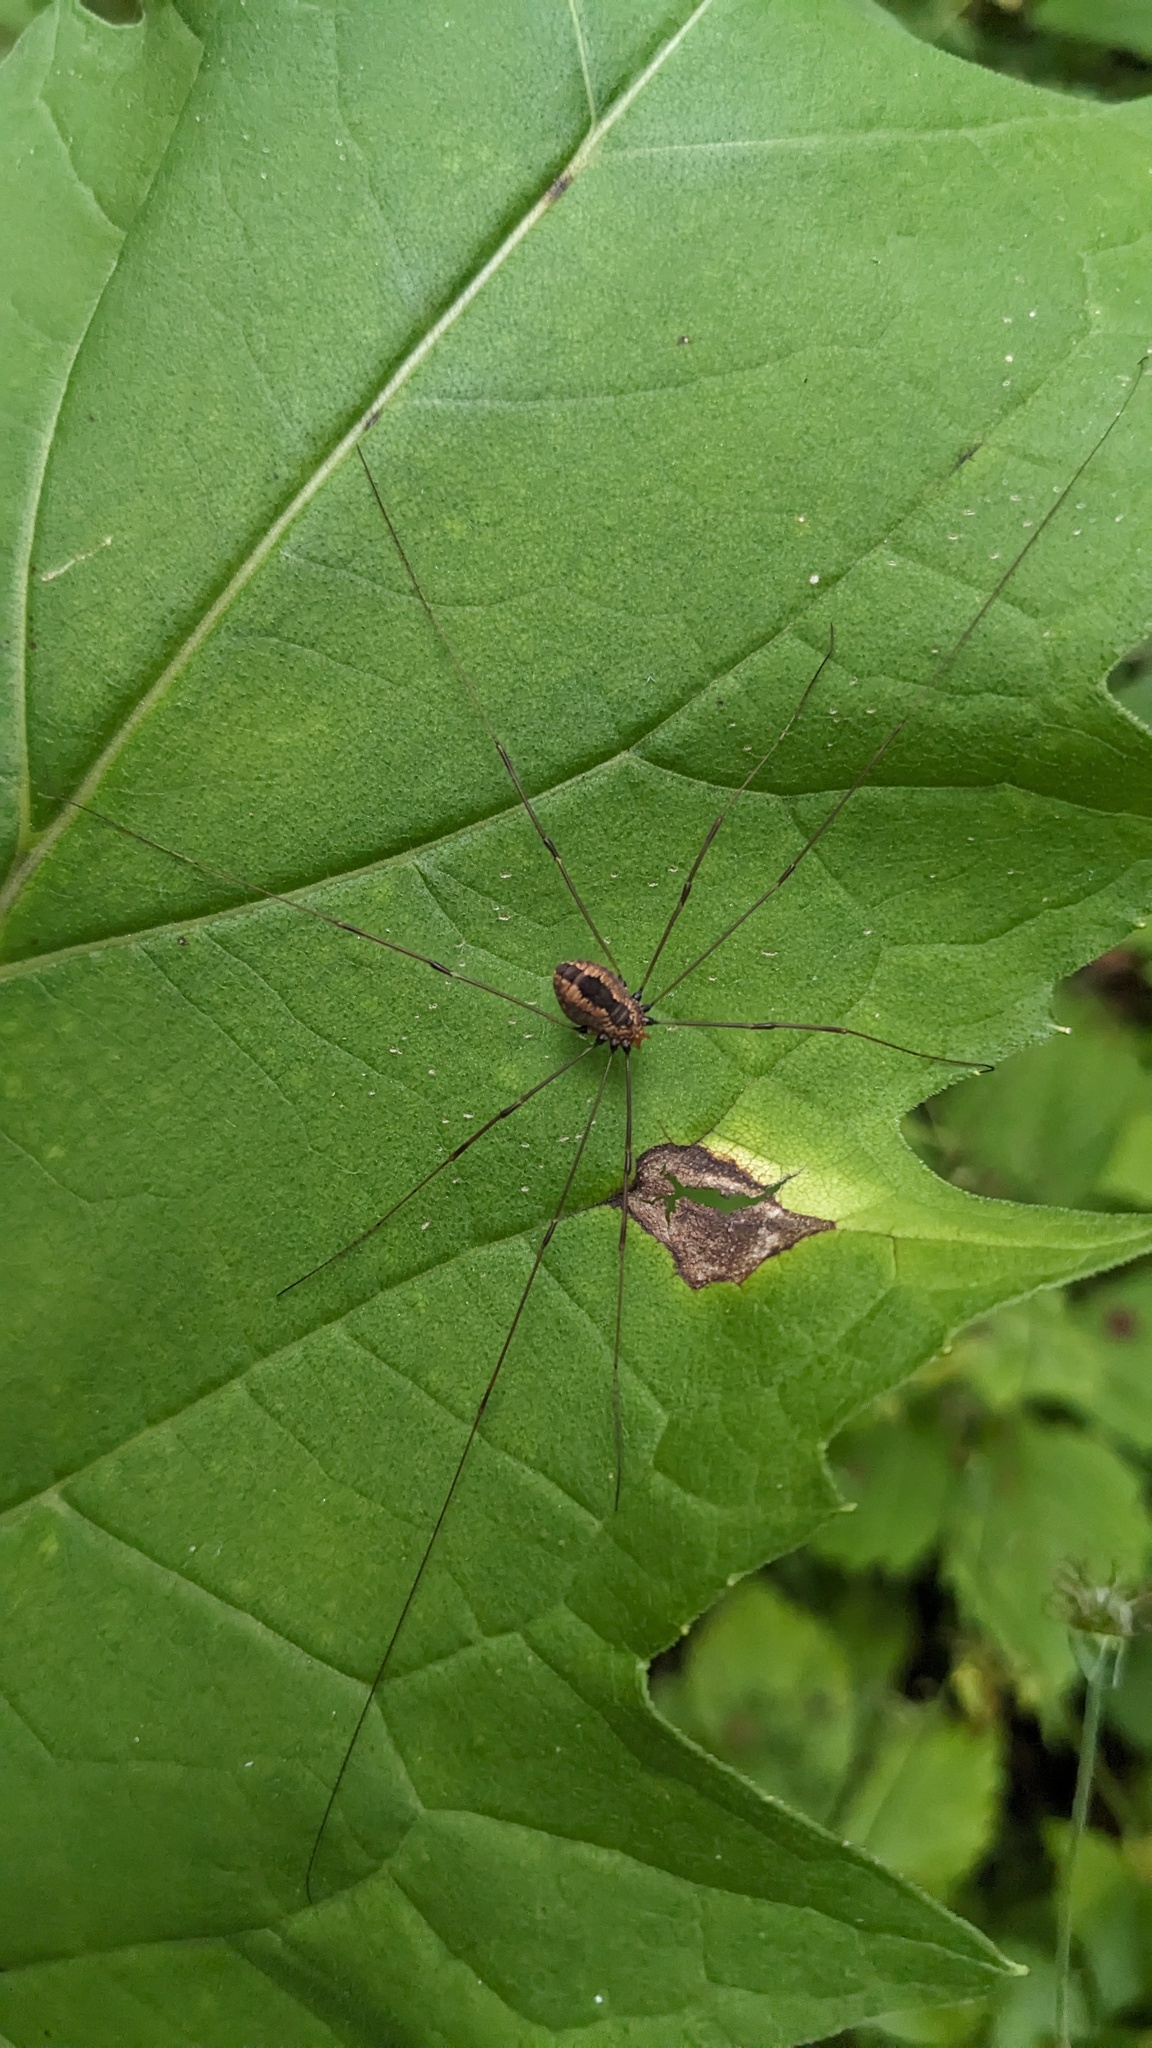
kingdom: Animalia
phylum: Arthropoda
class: Arachnida
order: Opiliones
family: Sclerosomatidae
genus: Leiobunum
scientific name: Leiobunum vittatum
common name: Eastern harvestman
